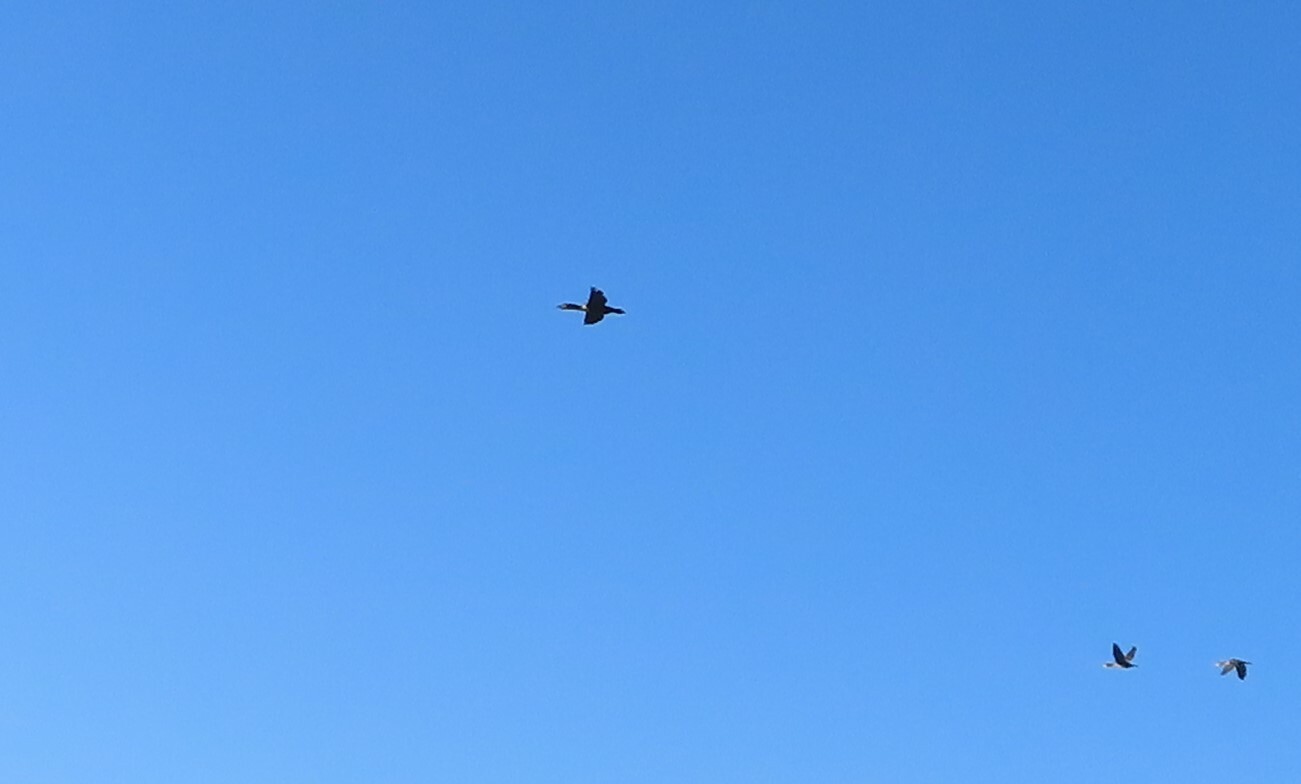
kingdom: Animalia
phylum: Chordata
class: Aves
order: Suliformes
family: Phalacrocoracidae
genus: Phalacrocorax
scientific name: Phalacrocorax carbo
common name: Great cormorant
